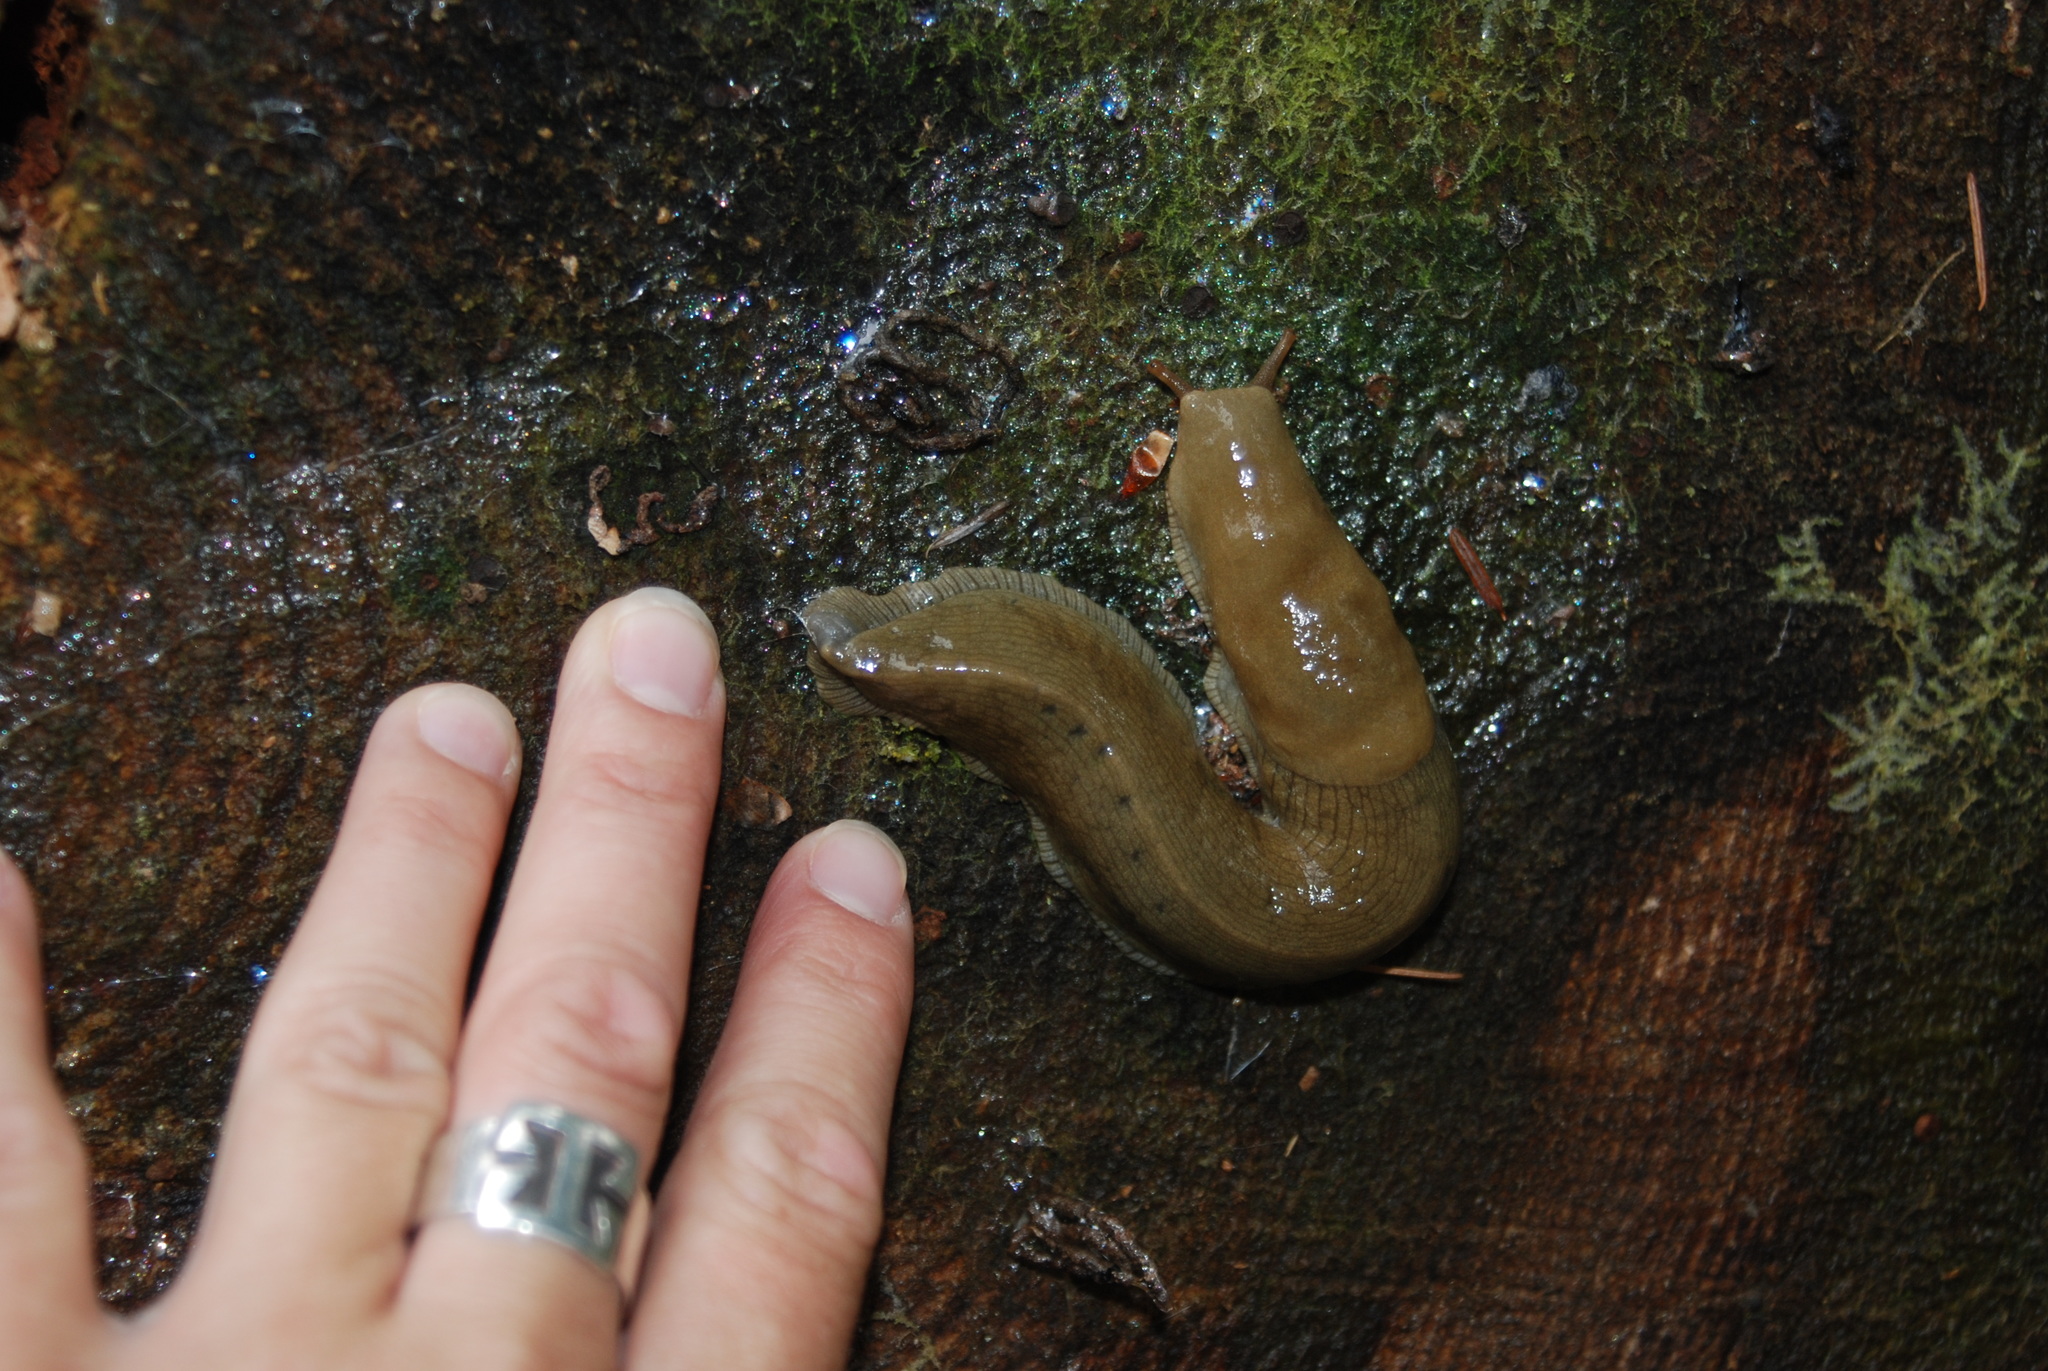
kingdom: Animalia
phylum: Mollusca
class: Gastropoda
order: Stylommatophora
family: Ariolimacidae
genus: Ariolimax
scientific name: Ariolimax columbianus
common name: Pacific banana slug
